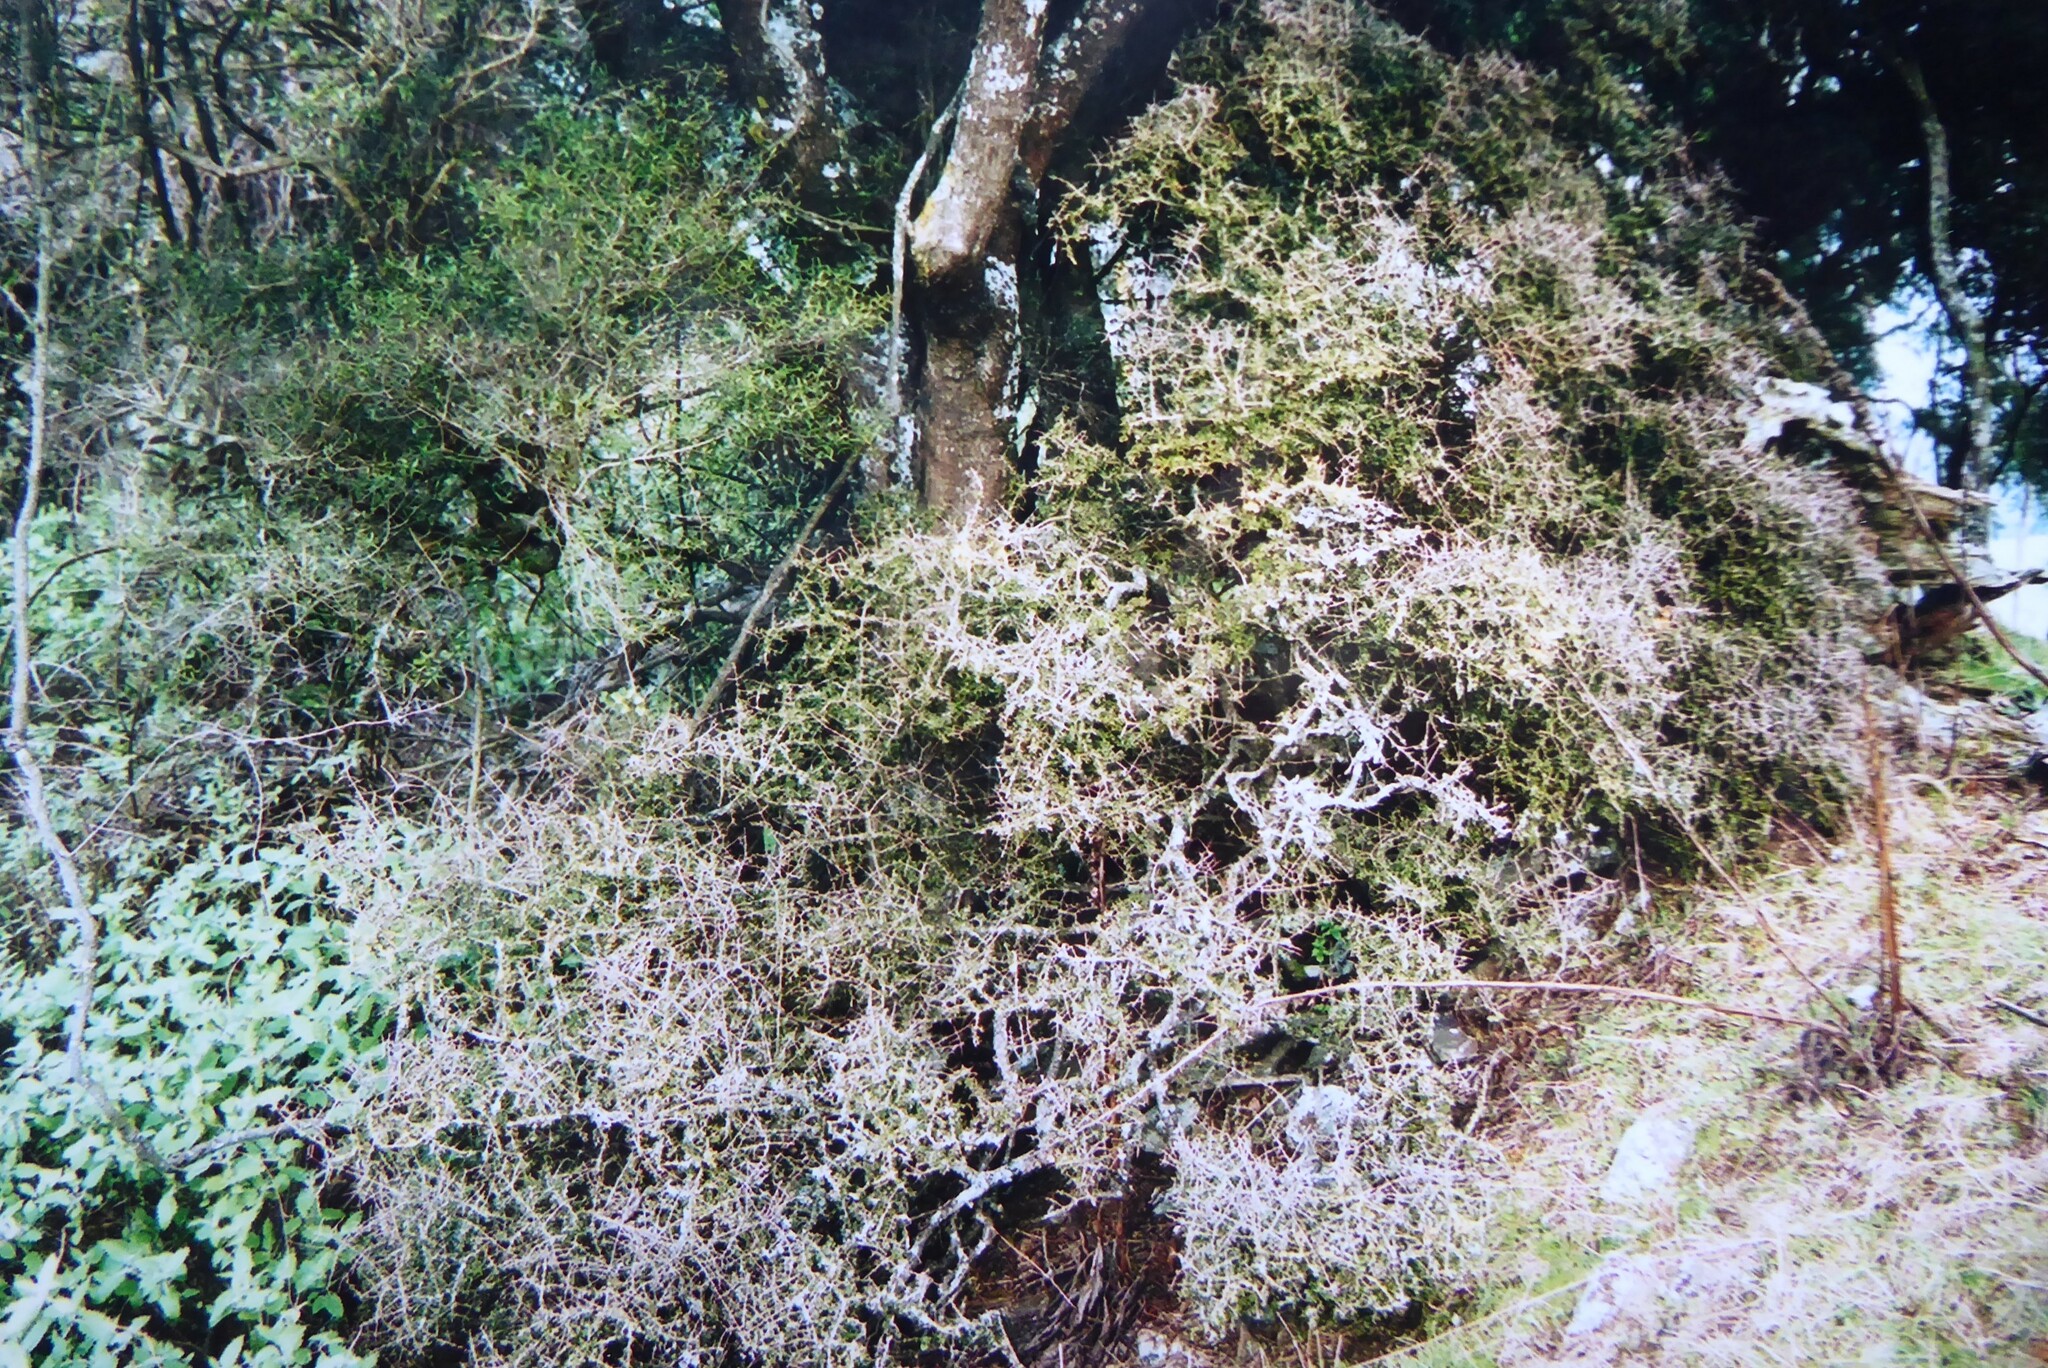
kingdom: Plantae
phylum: Tracheophyta
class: Magnoliopsida
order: Gentianales
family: Rubiaceae
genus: Coprosma
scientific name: Coprosma obconica
